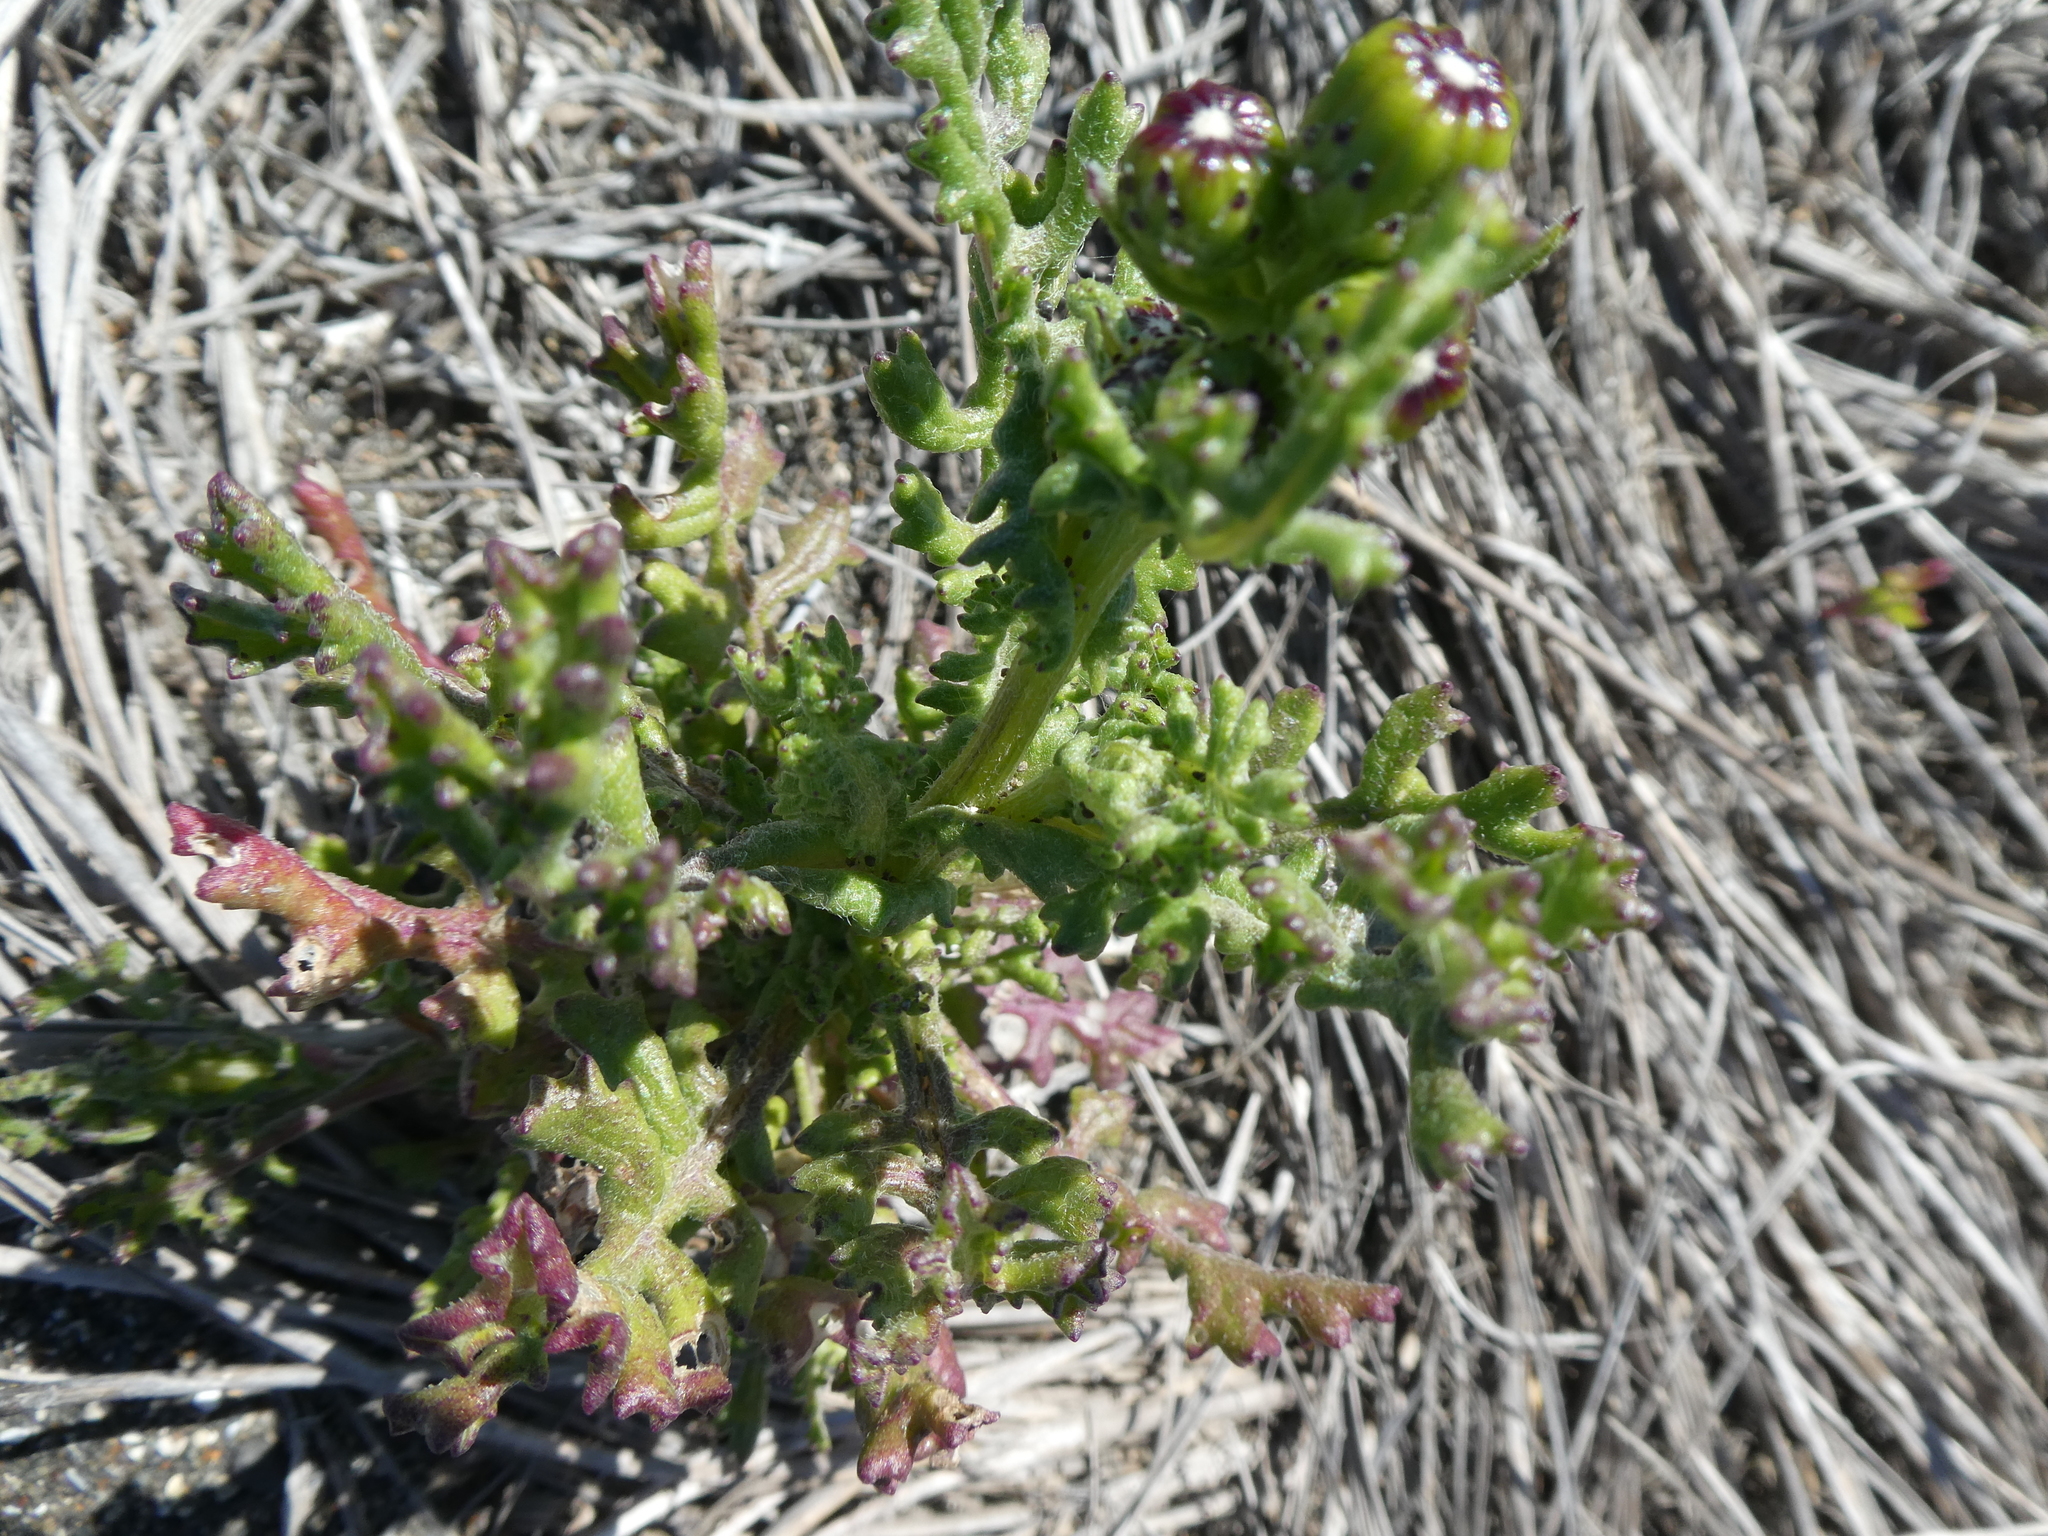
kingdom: Plantae
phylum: Tracheophyta
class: Magnoliopsida
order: Asterales
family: Asteraceae
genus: Senecio
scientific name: Senecio elegans
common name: Purple groundsel
